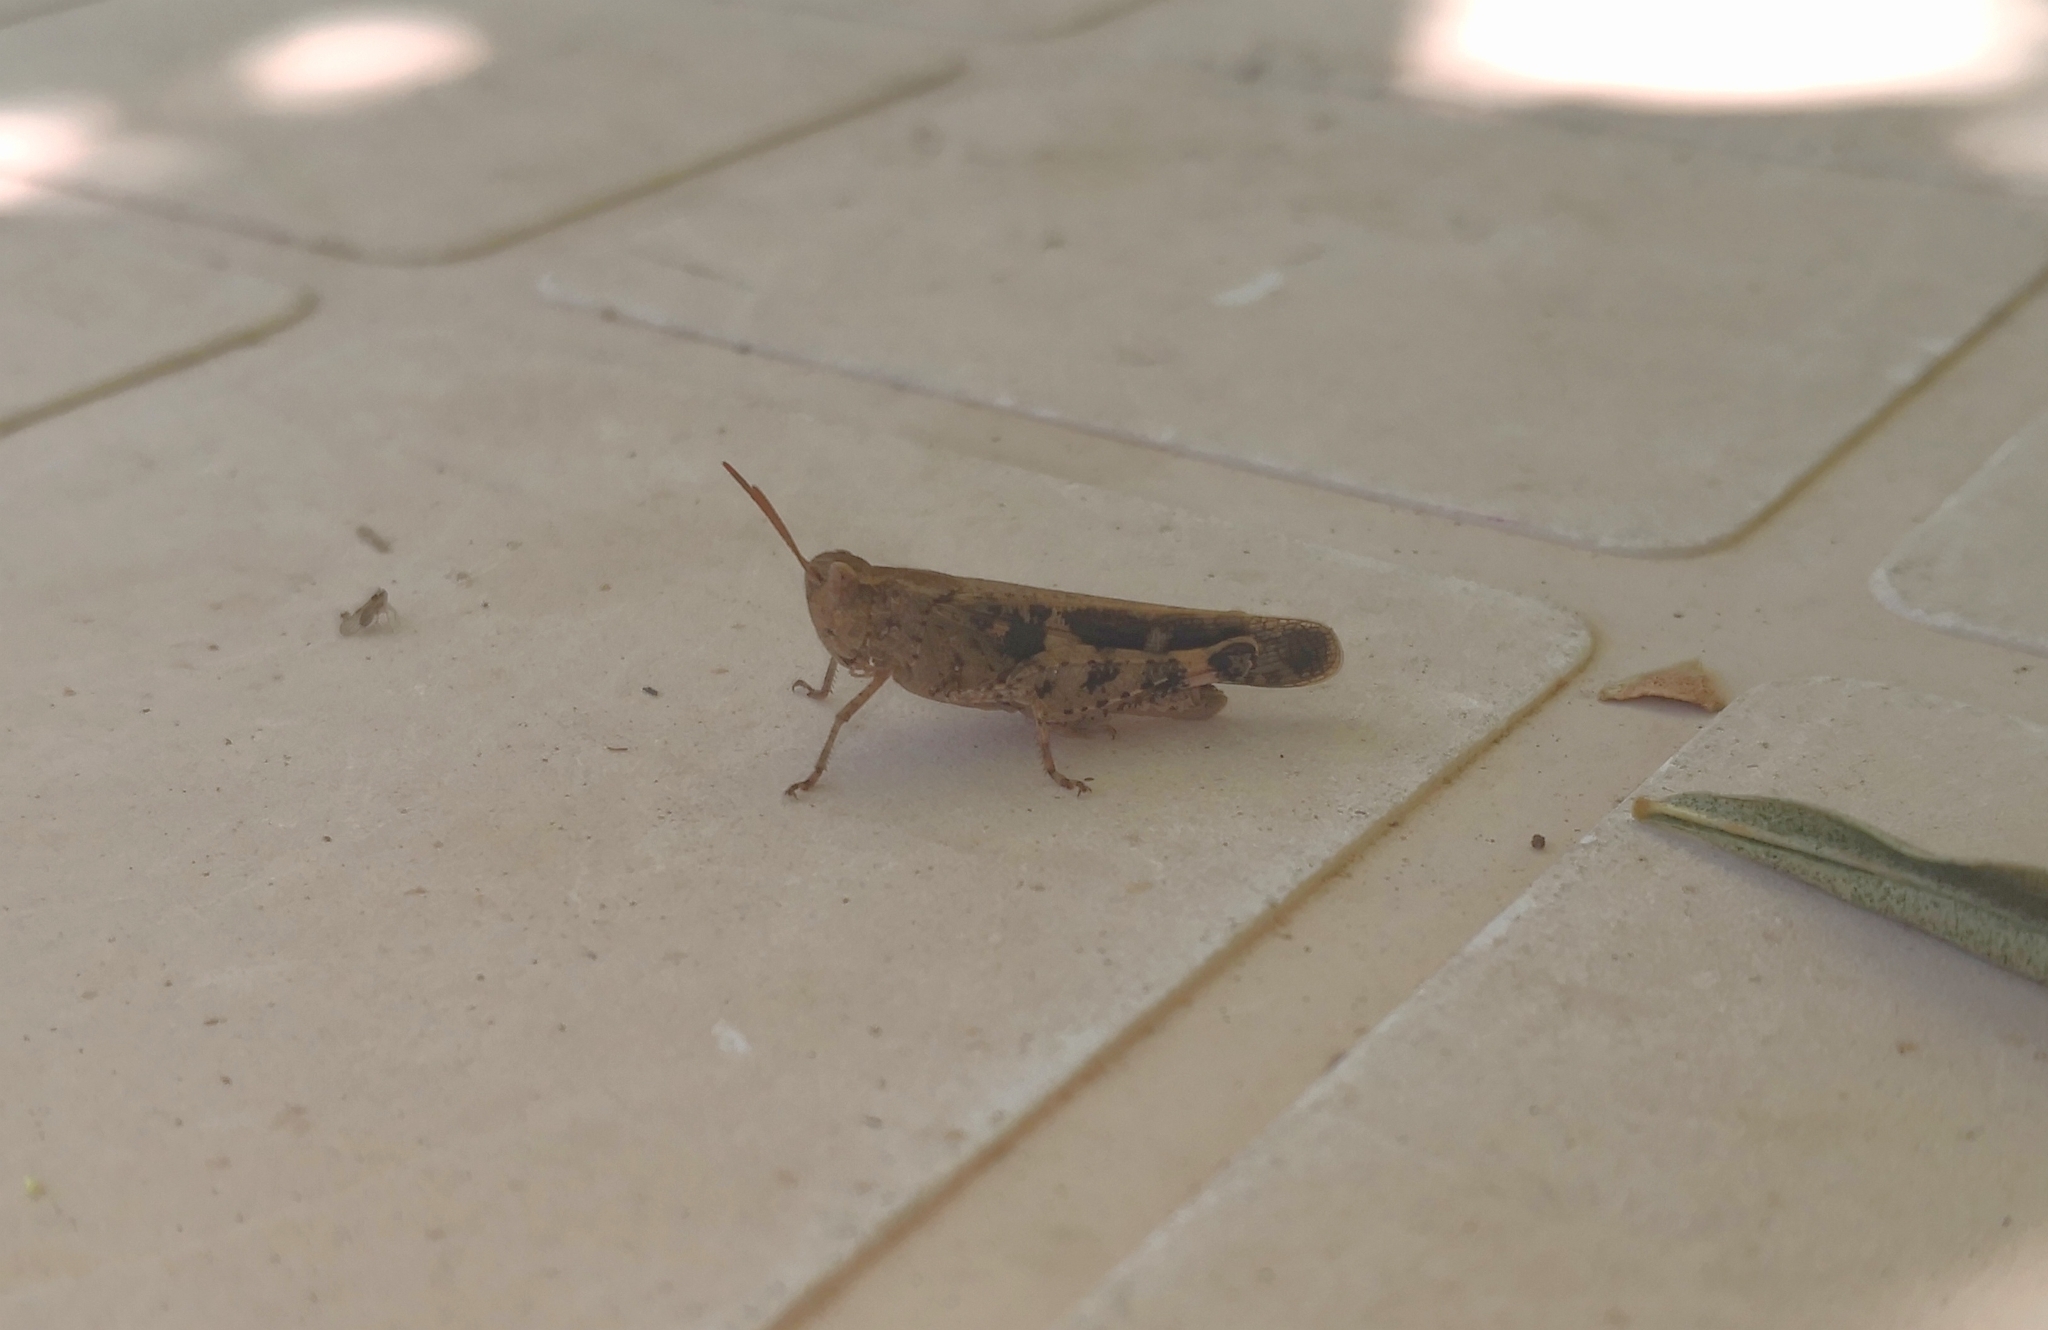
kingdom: Animalia
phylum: Arthropoda
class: Insecta
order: Orthoptera
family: Acrididae
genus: Aiolopus
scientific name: Aiolopus strepens
